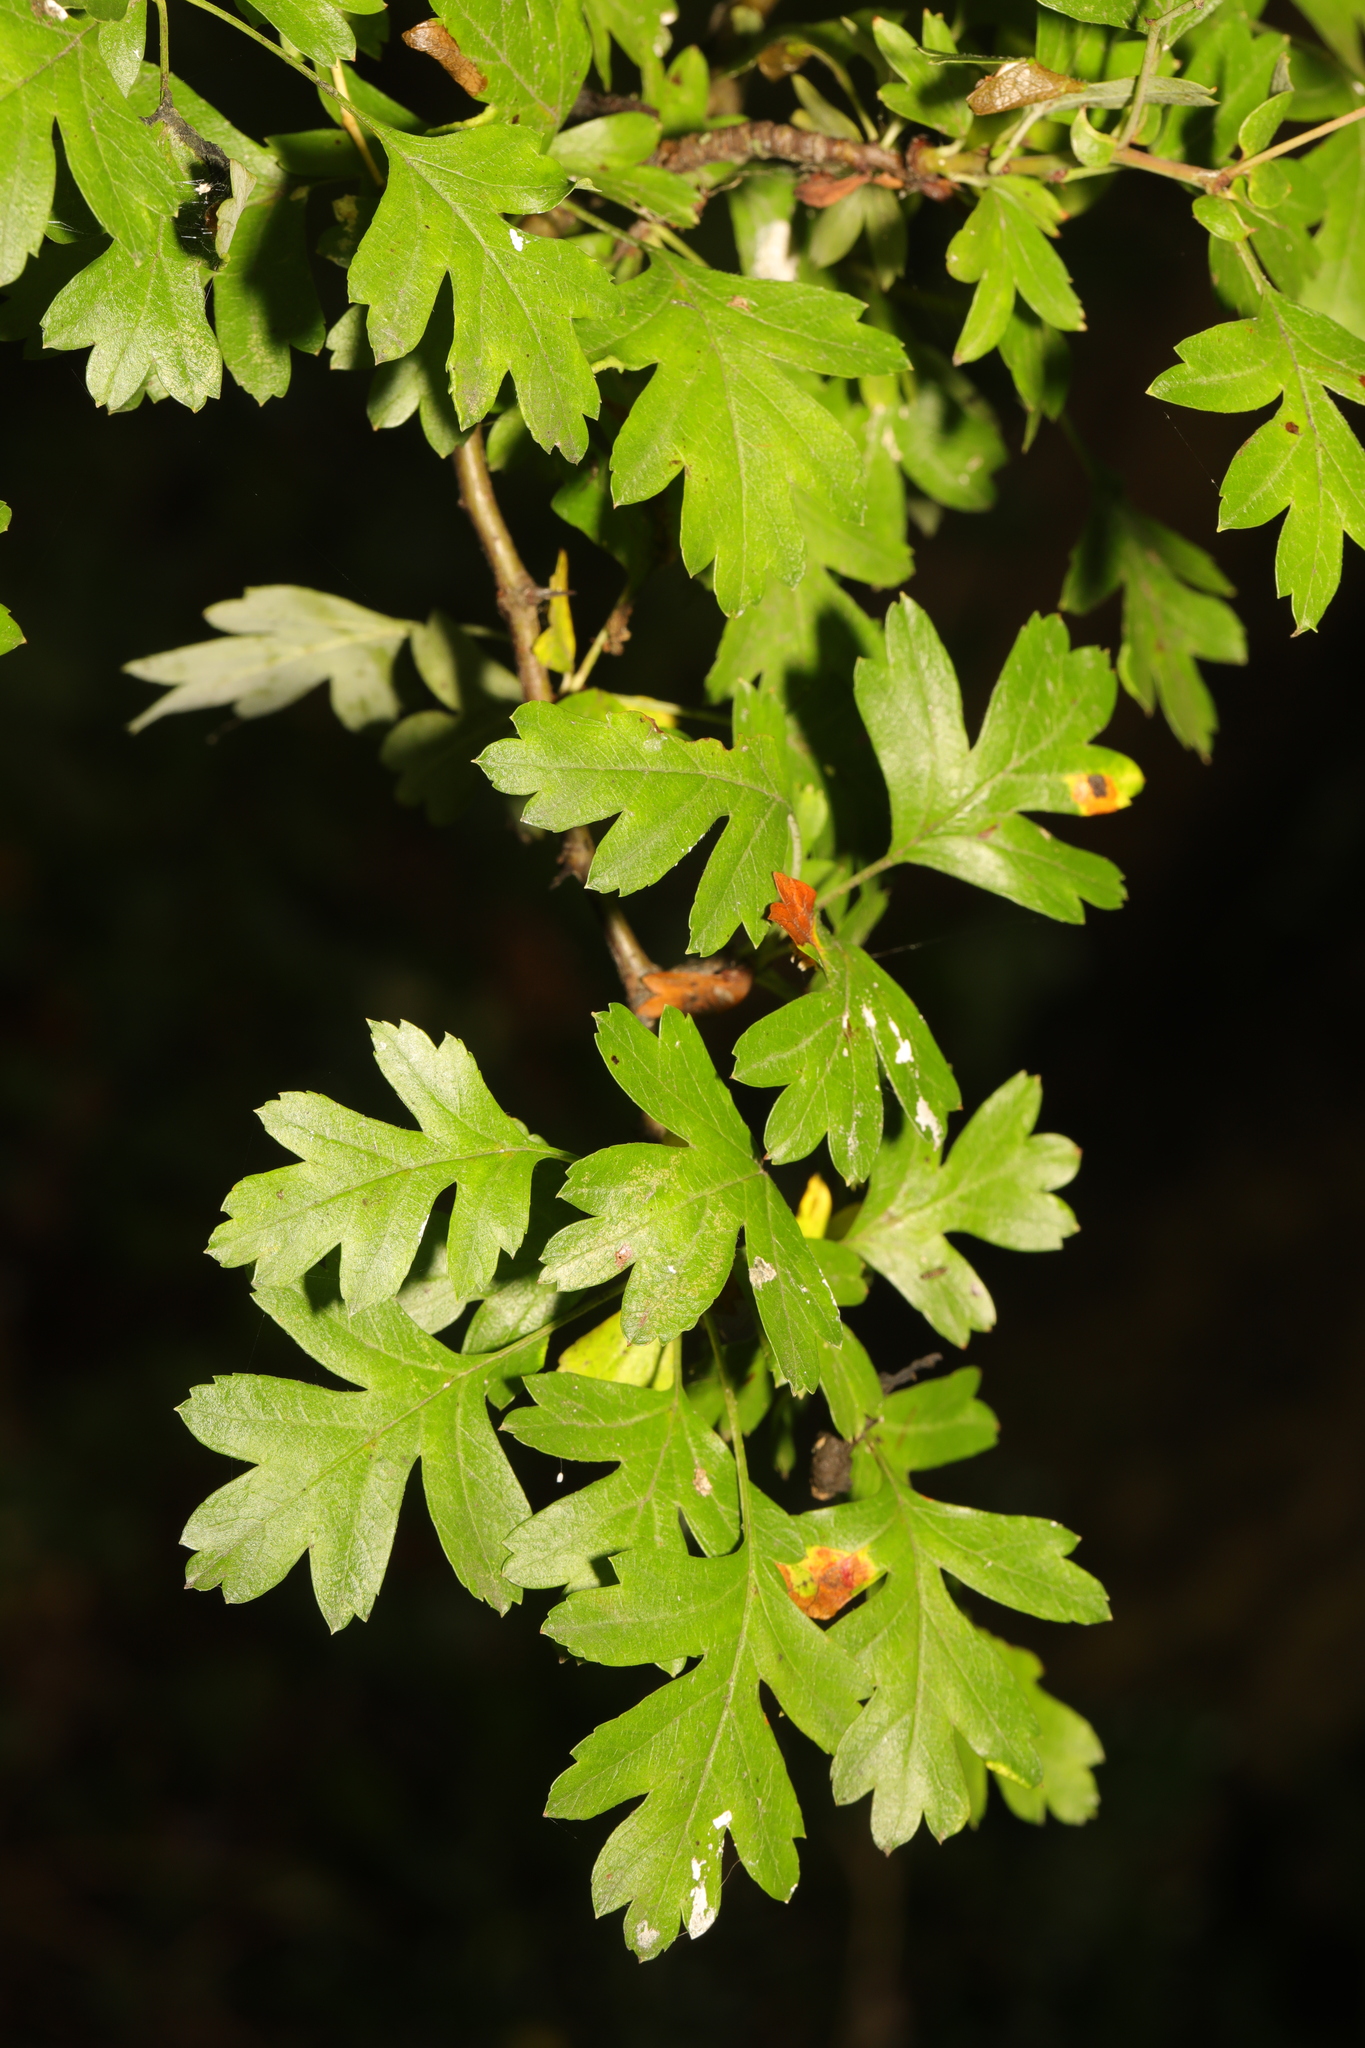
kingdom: Plantae
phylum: Tracheophyta
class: Magnoliopsida
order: Rosales
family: Rosaceae
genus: Crataegus
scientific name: Crataegus monogyna
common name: Hawthorn
